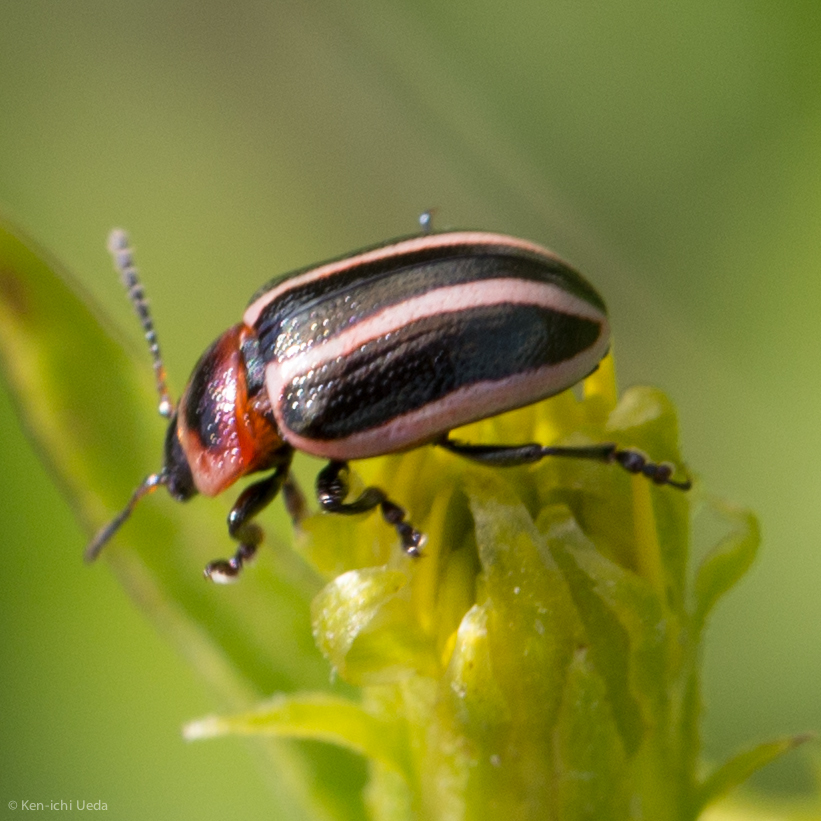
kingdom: Animalia
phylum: Arthropoda
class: Insecta
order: Coleoptera
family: Chrysomelidae
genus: Calligrapha
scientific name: Calligrapha californica
